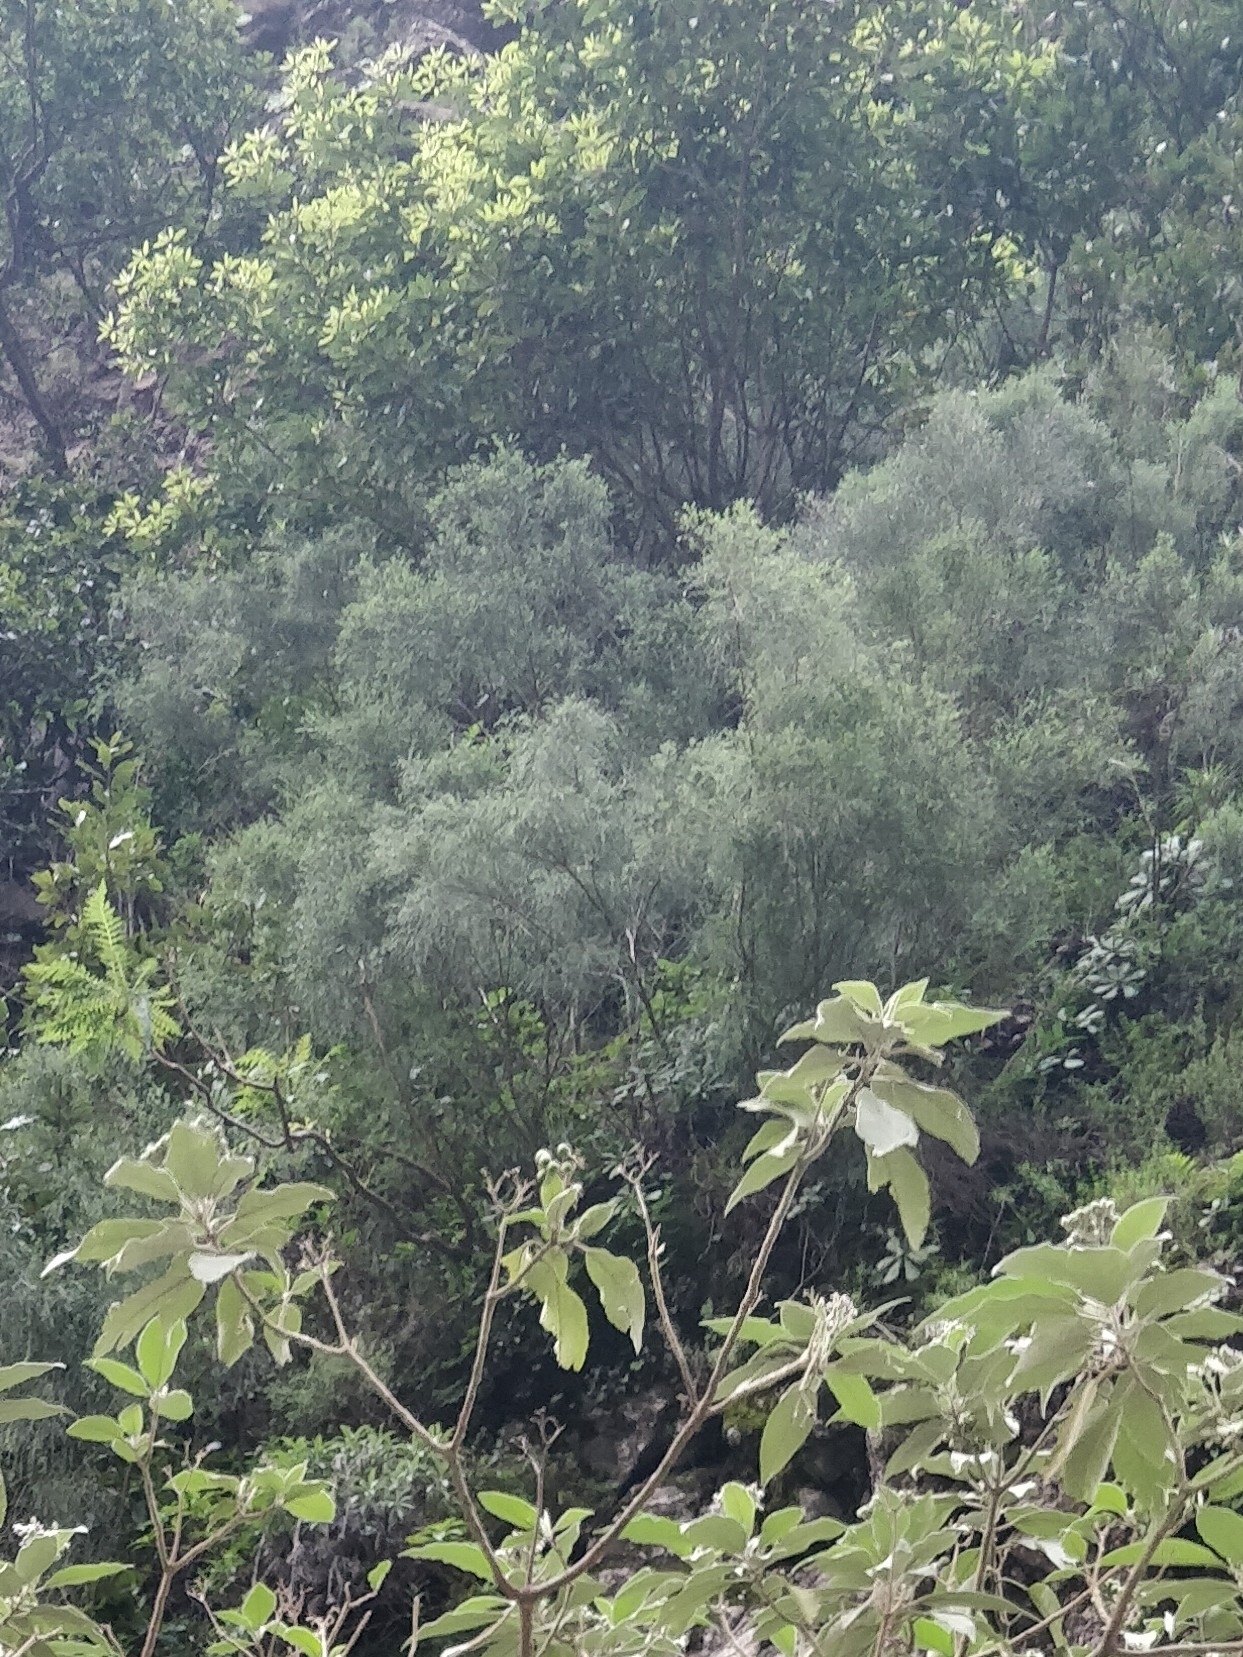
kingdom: Plantae
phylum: Tracheophyta
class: Magnoliopsida
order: Fabales
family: Fabaceae
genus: Genista
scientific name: Genista tenera
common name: Madeira broom
